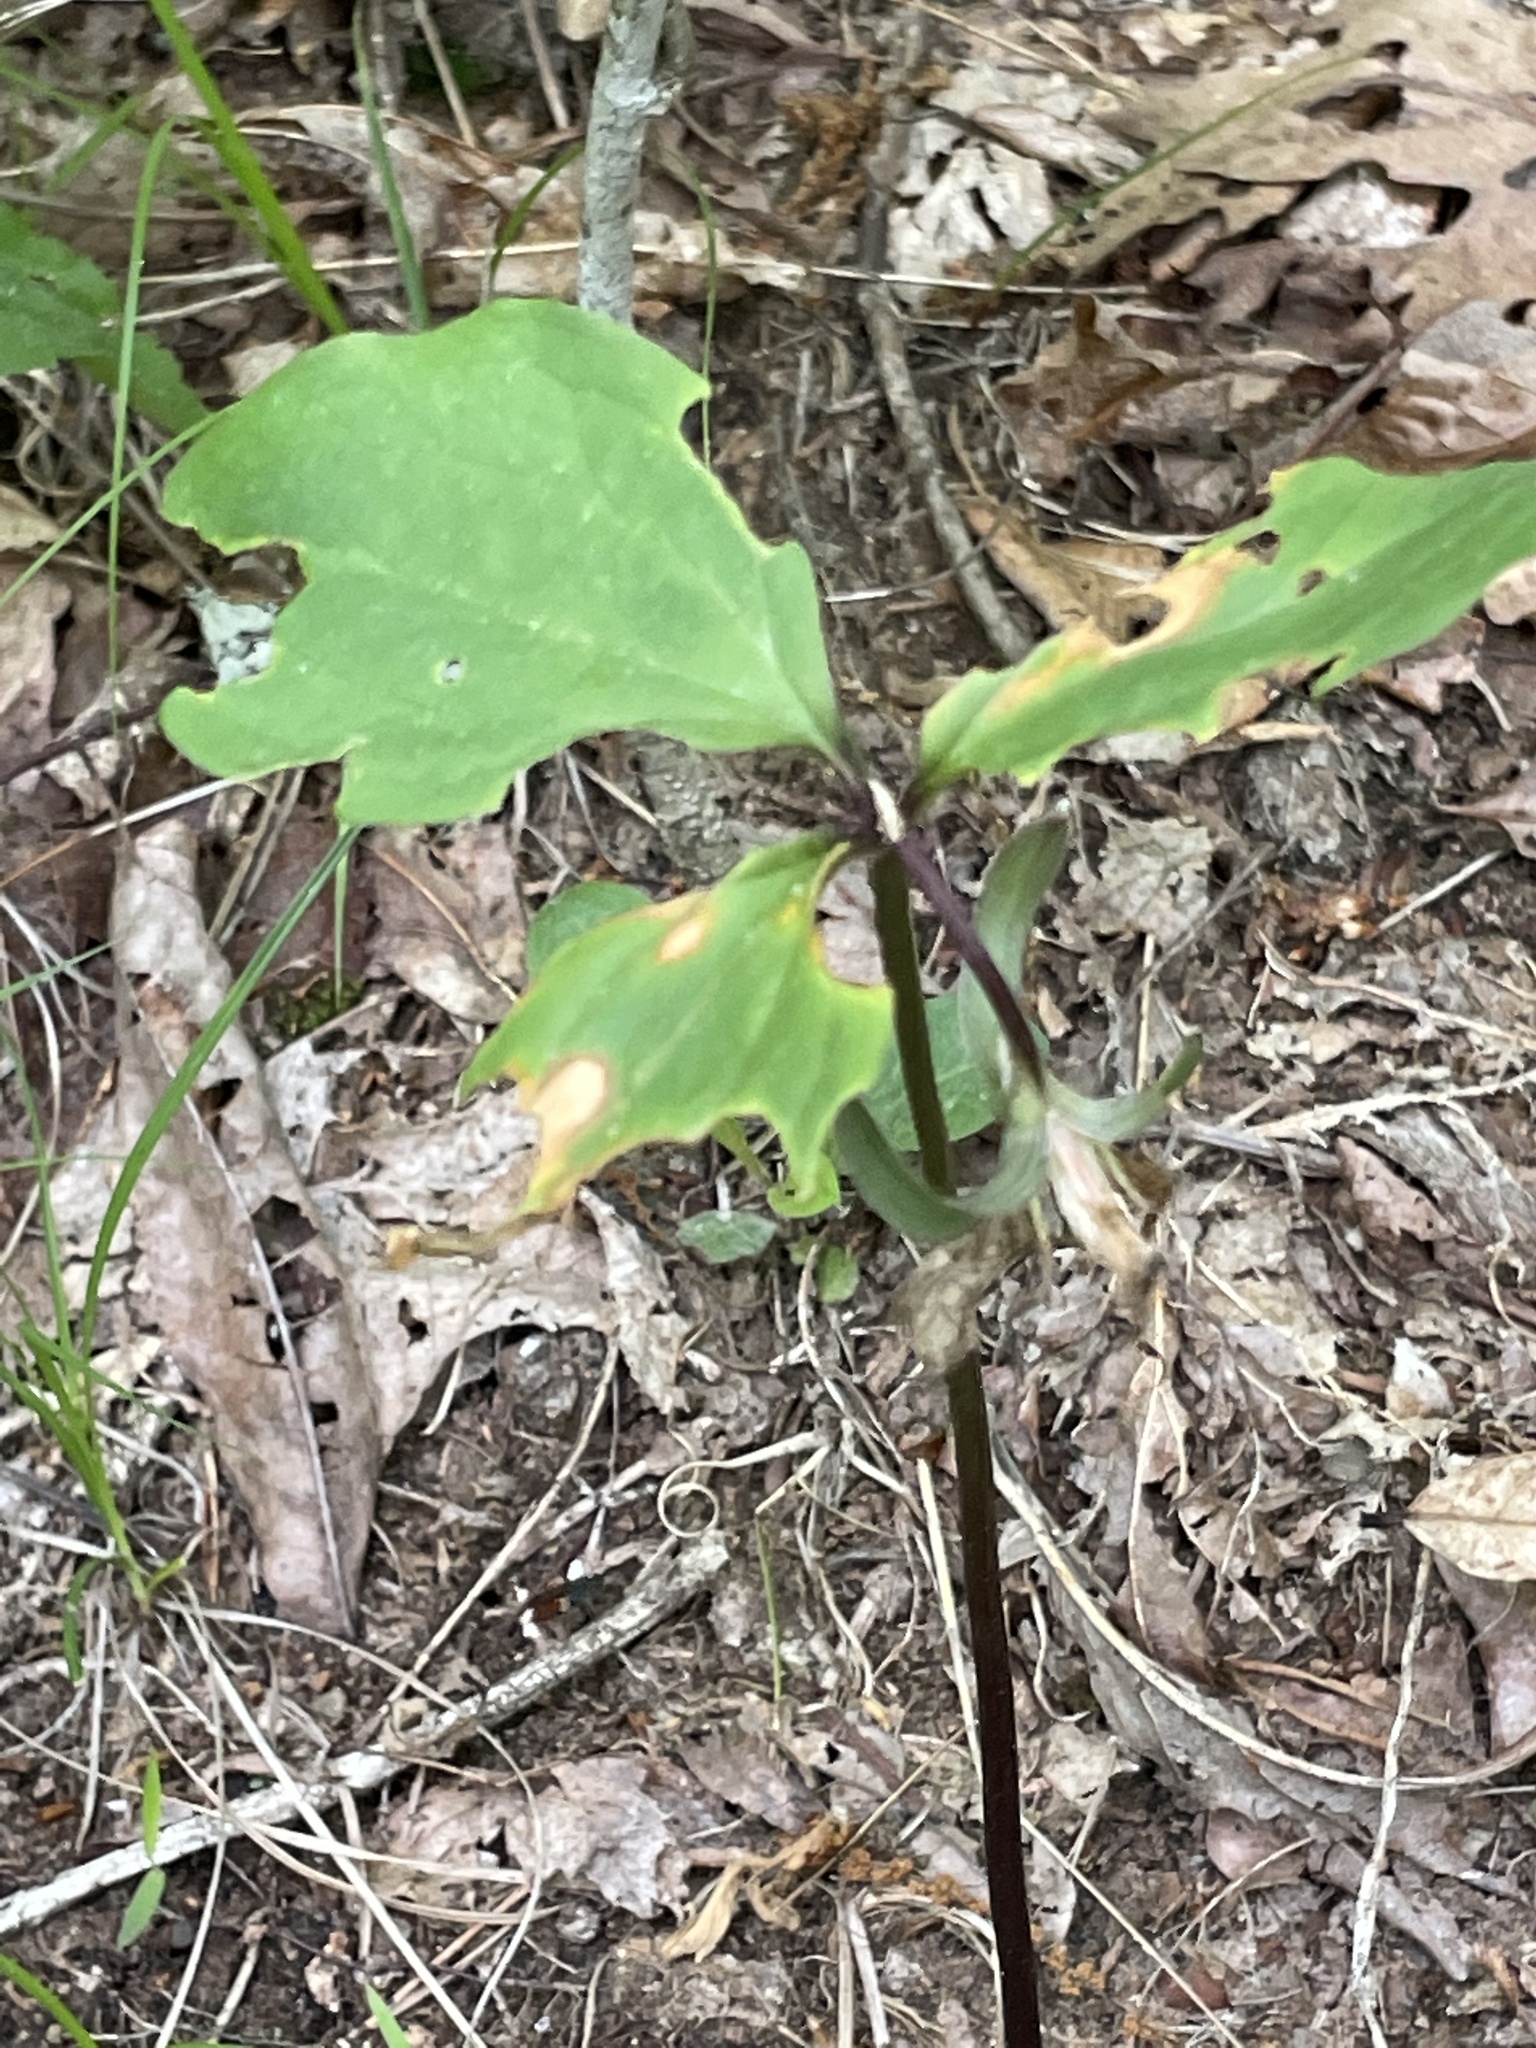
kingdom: Plantae
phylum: Tracheophyta
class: Liliopsida
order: Liliales
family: Melanthiaceae
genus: Trillium
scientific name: Trillium catesbaei
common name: Bashful trillium
